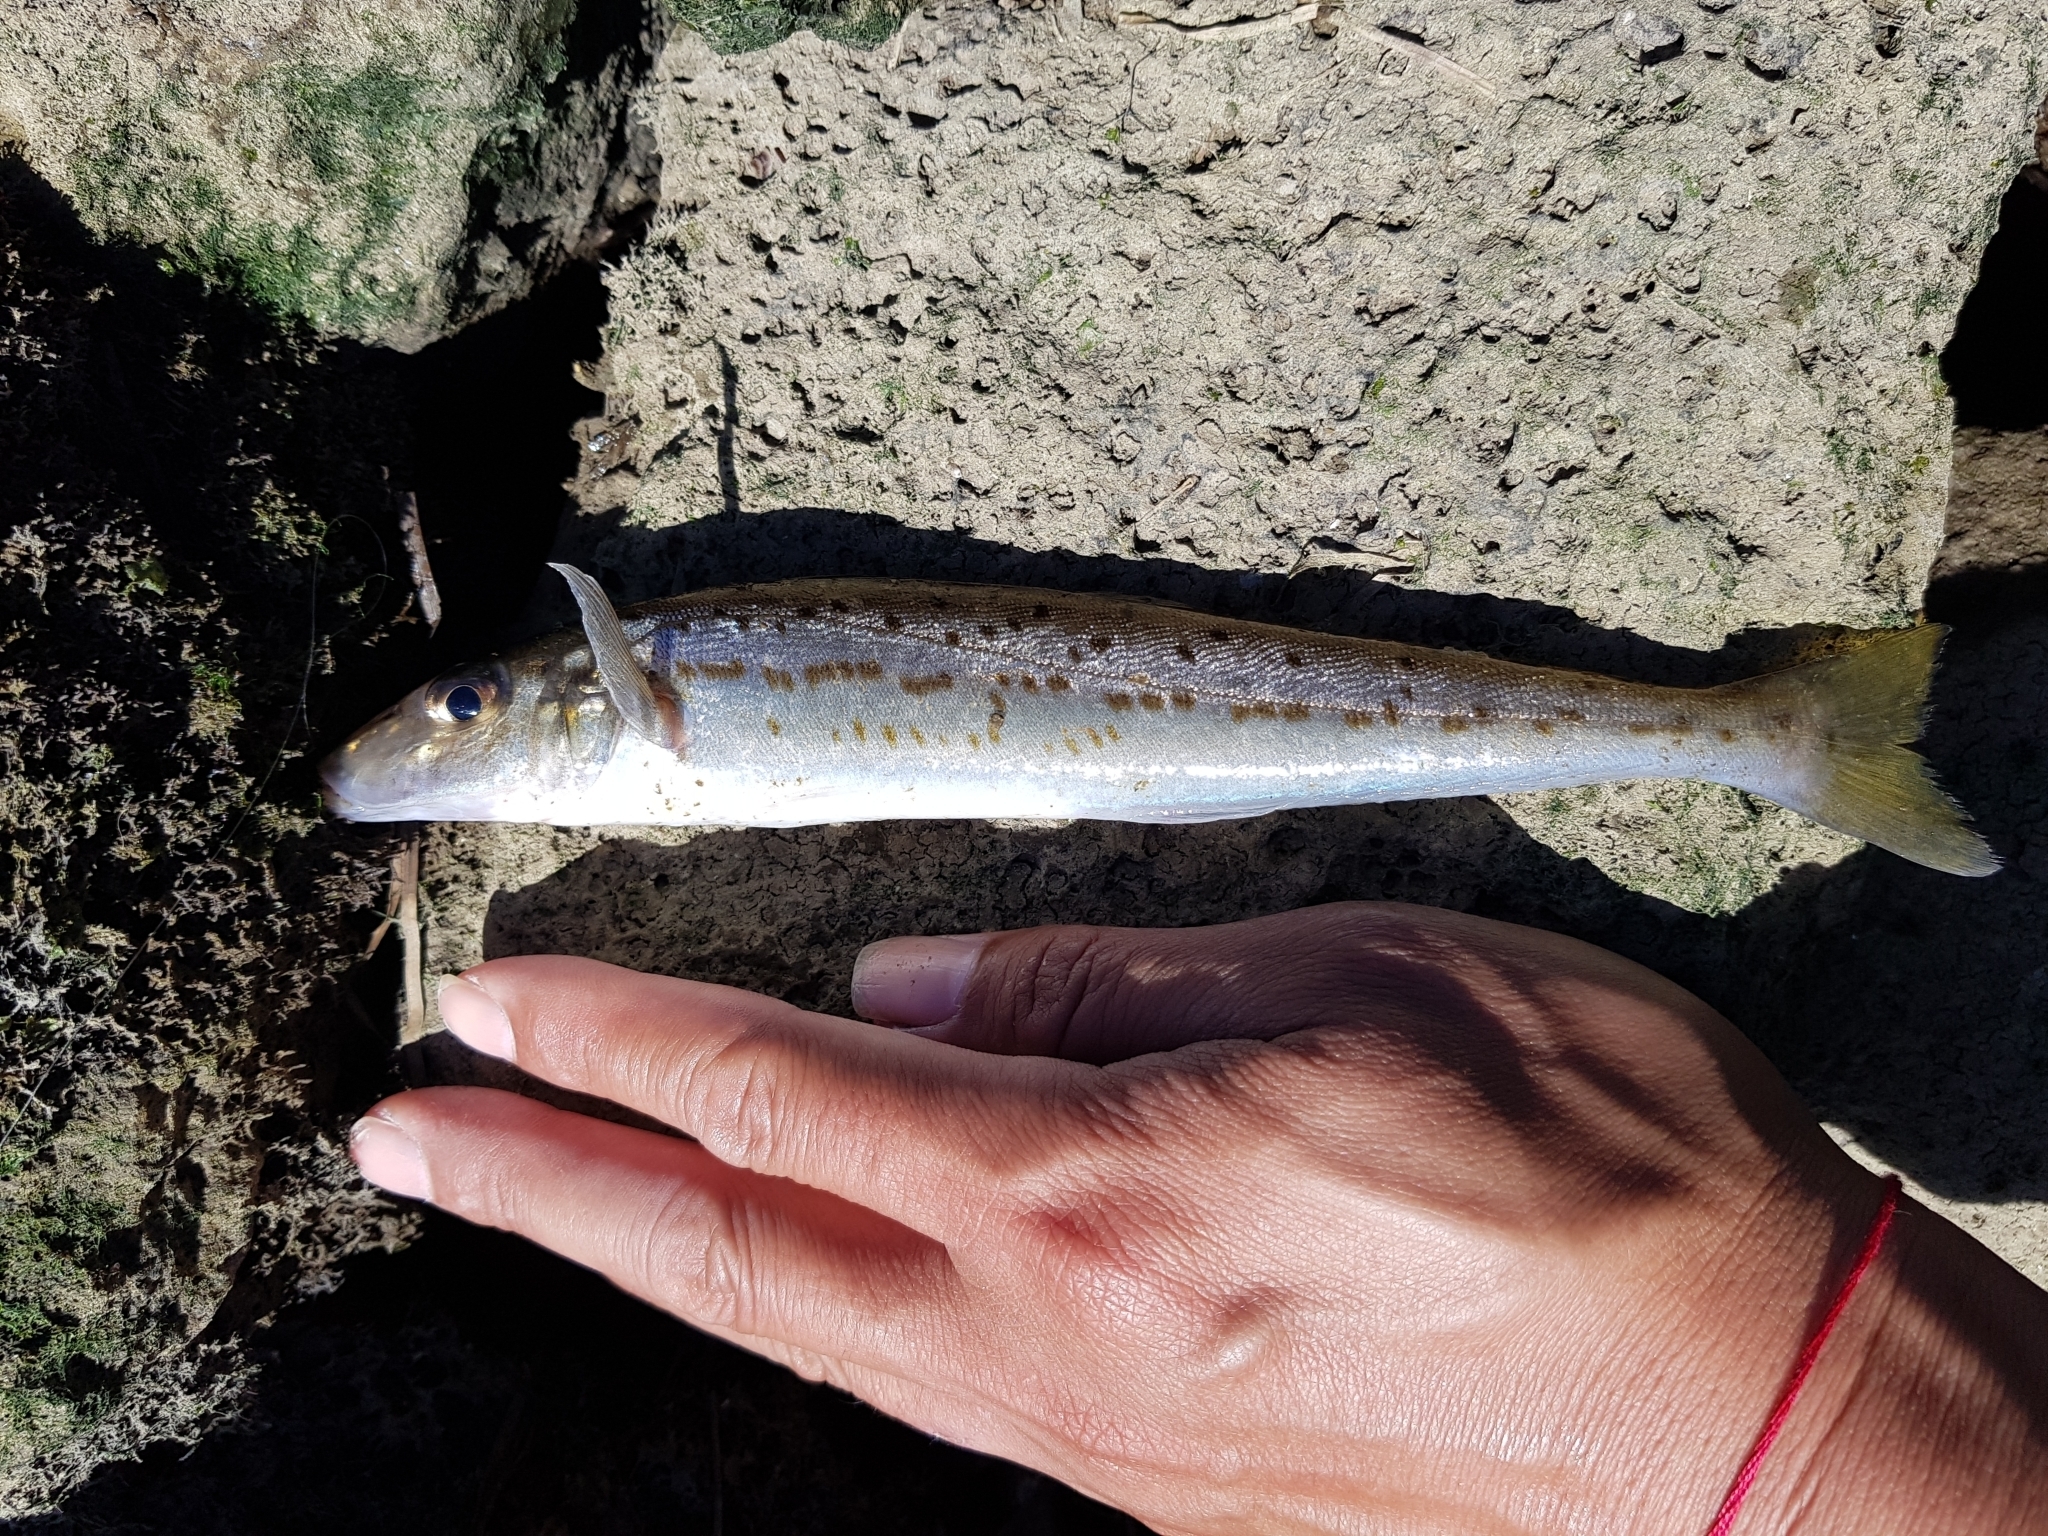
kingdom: Animalia
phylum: Chordata
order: Perciformes
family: Sillaginidae
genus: Sillaginodes
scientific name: Sillaginodes punctatus
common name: King george whiting
